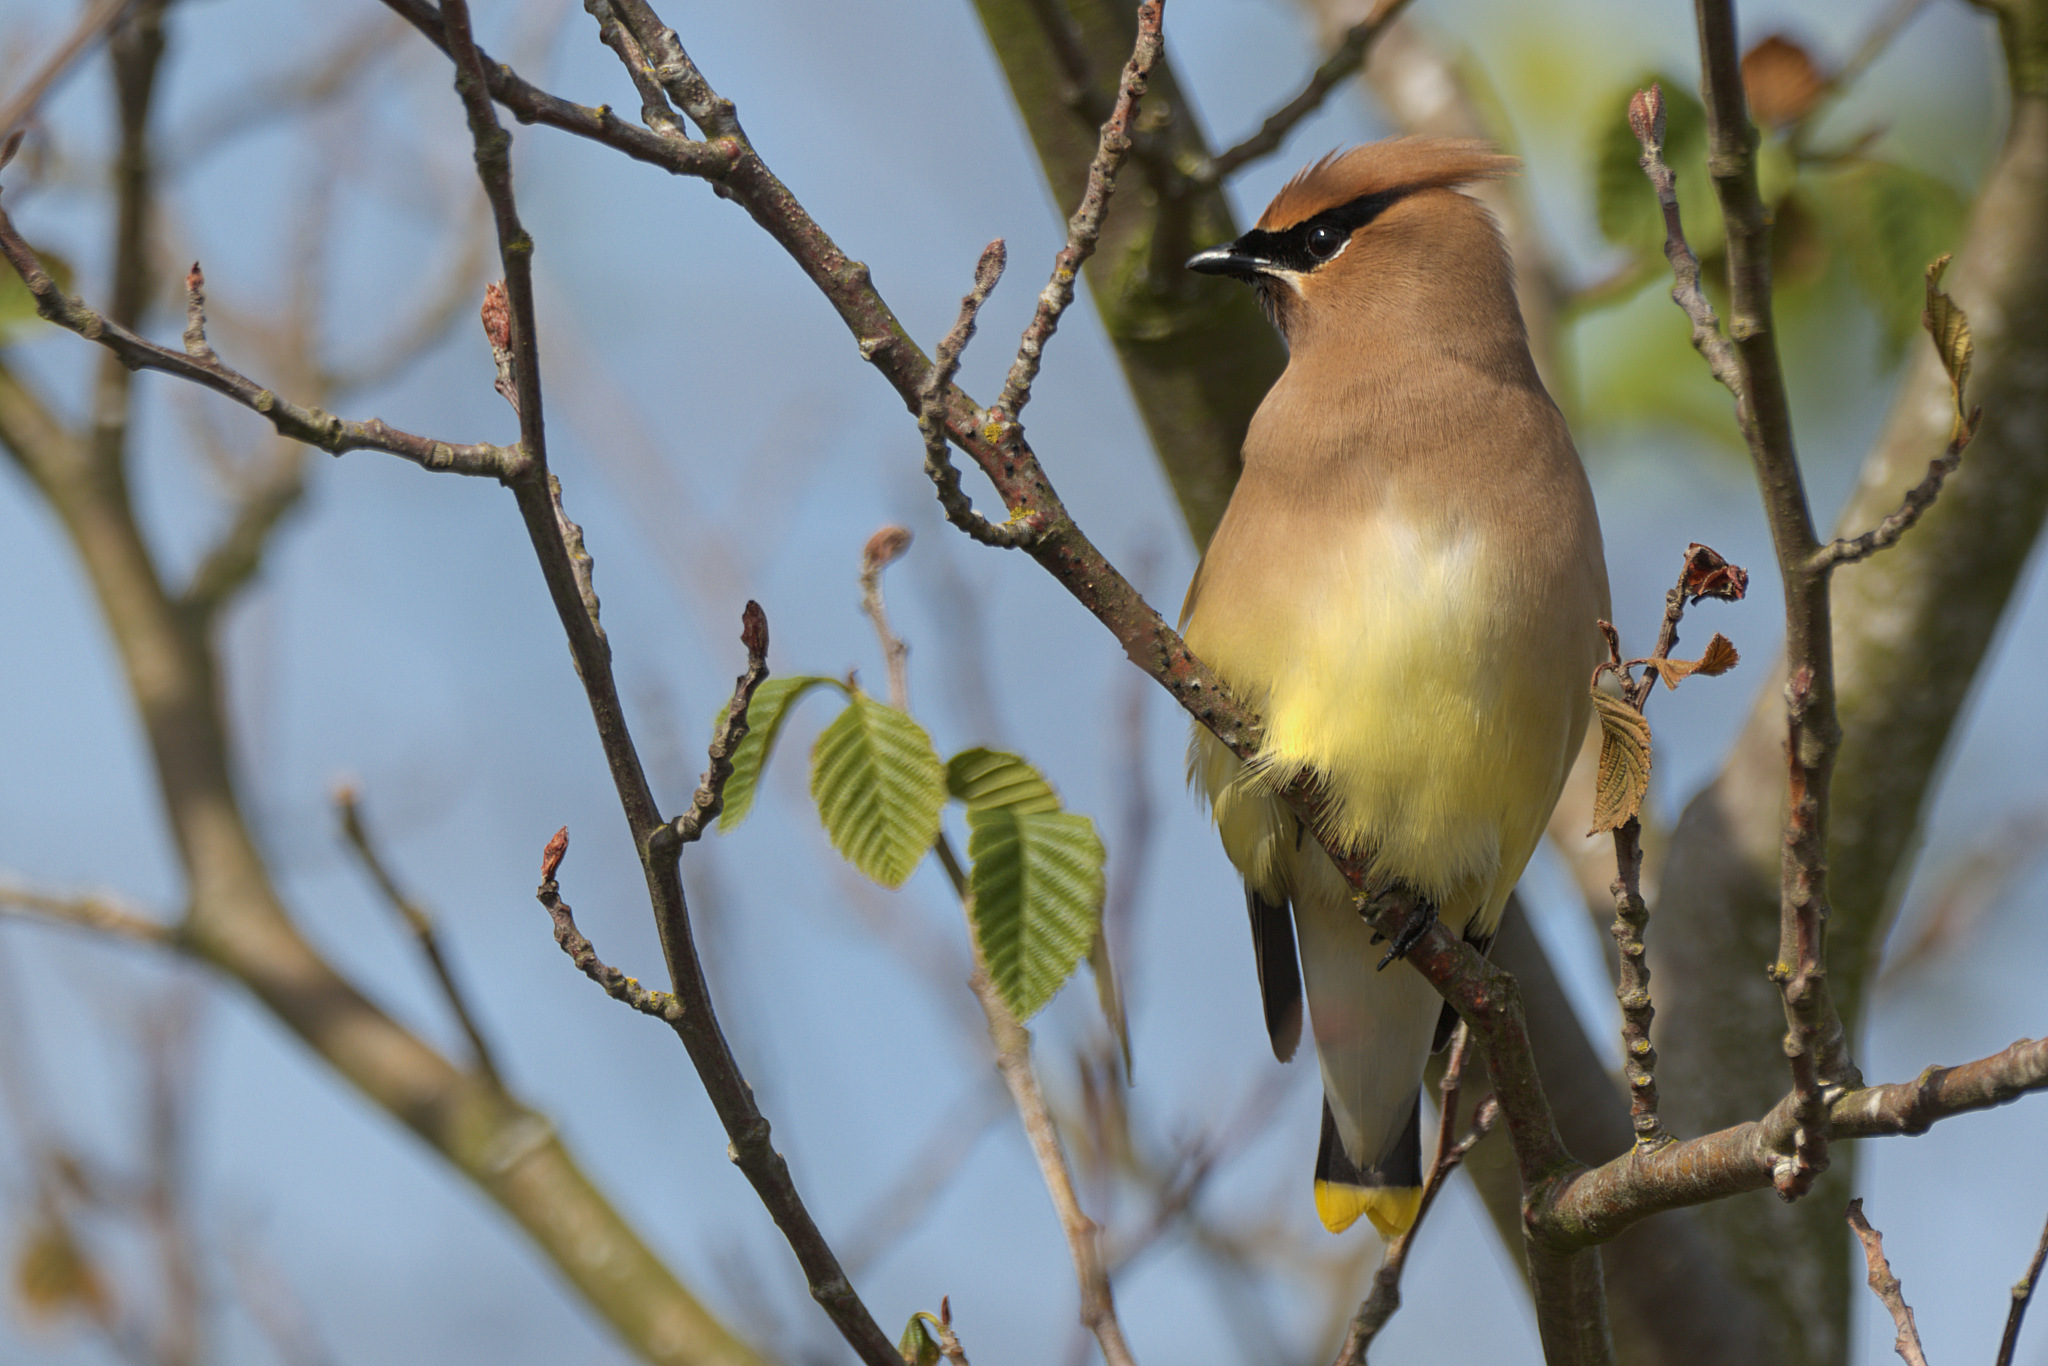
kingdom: Animalia
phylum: Chordata
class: Aves
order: Passeriformes
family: Bombycillidae
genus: Bombycilla
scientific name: Bombycilla cedrorum
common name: Cedar waxwing
